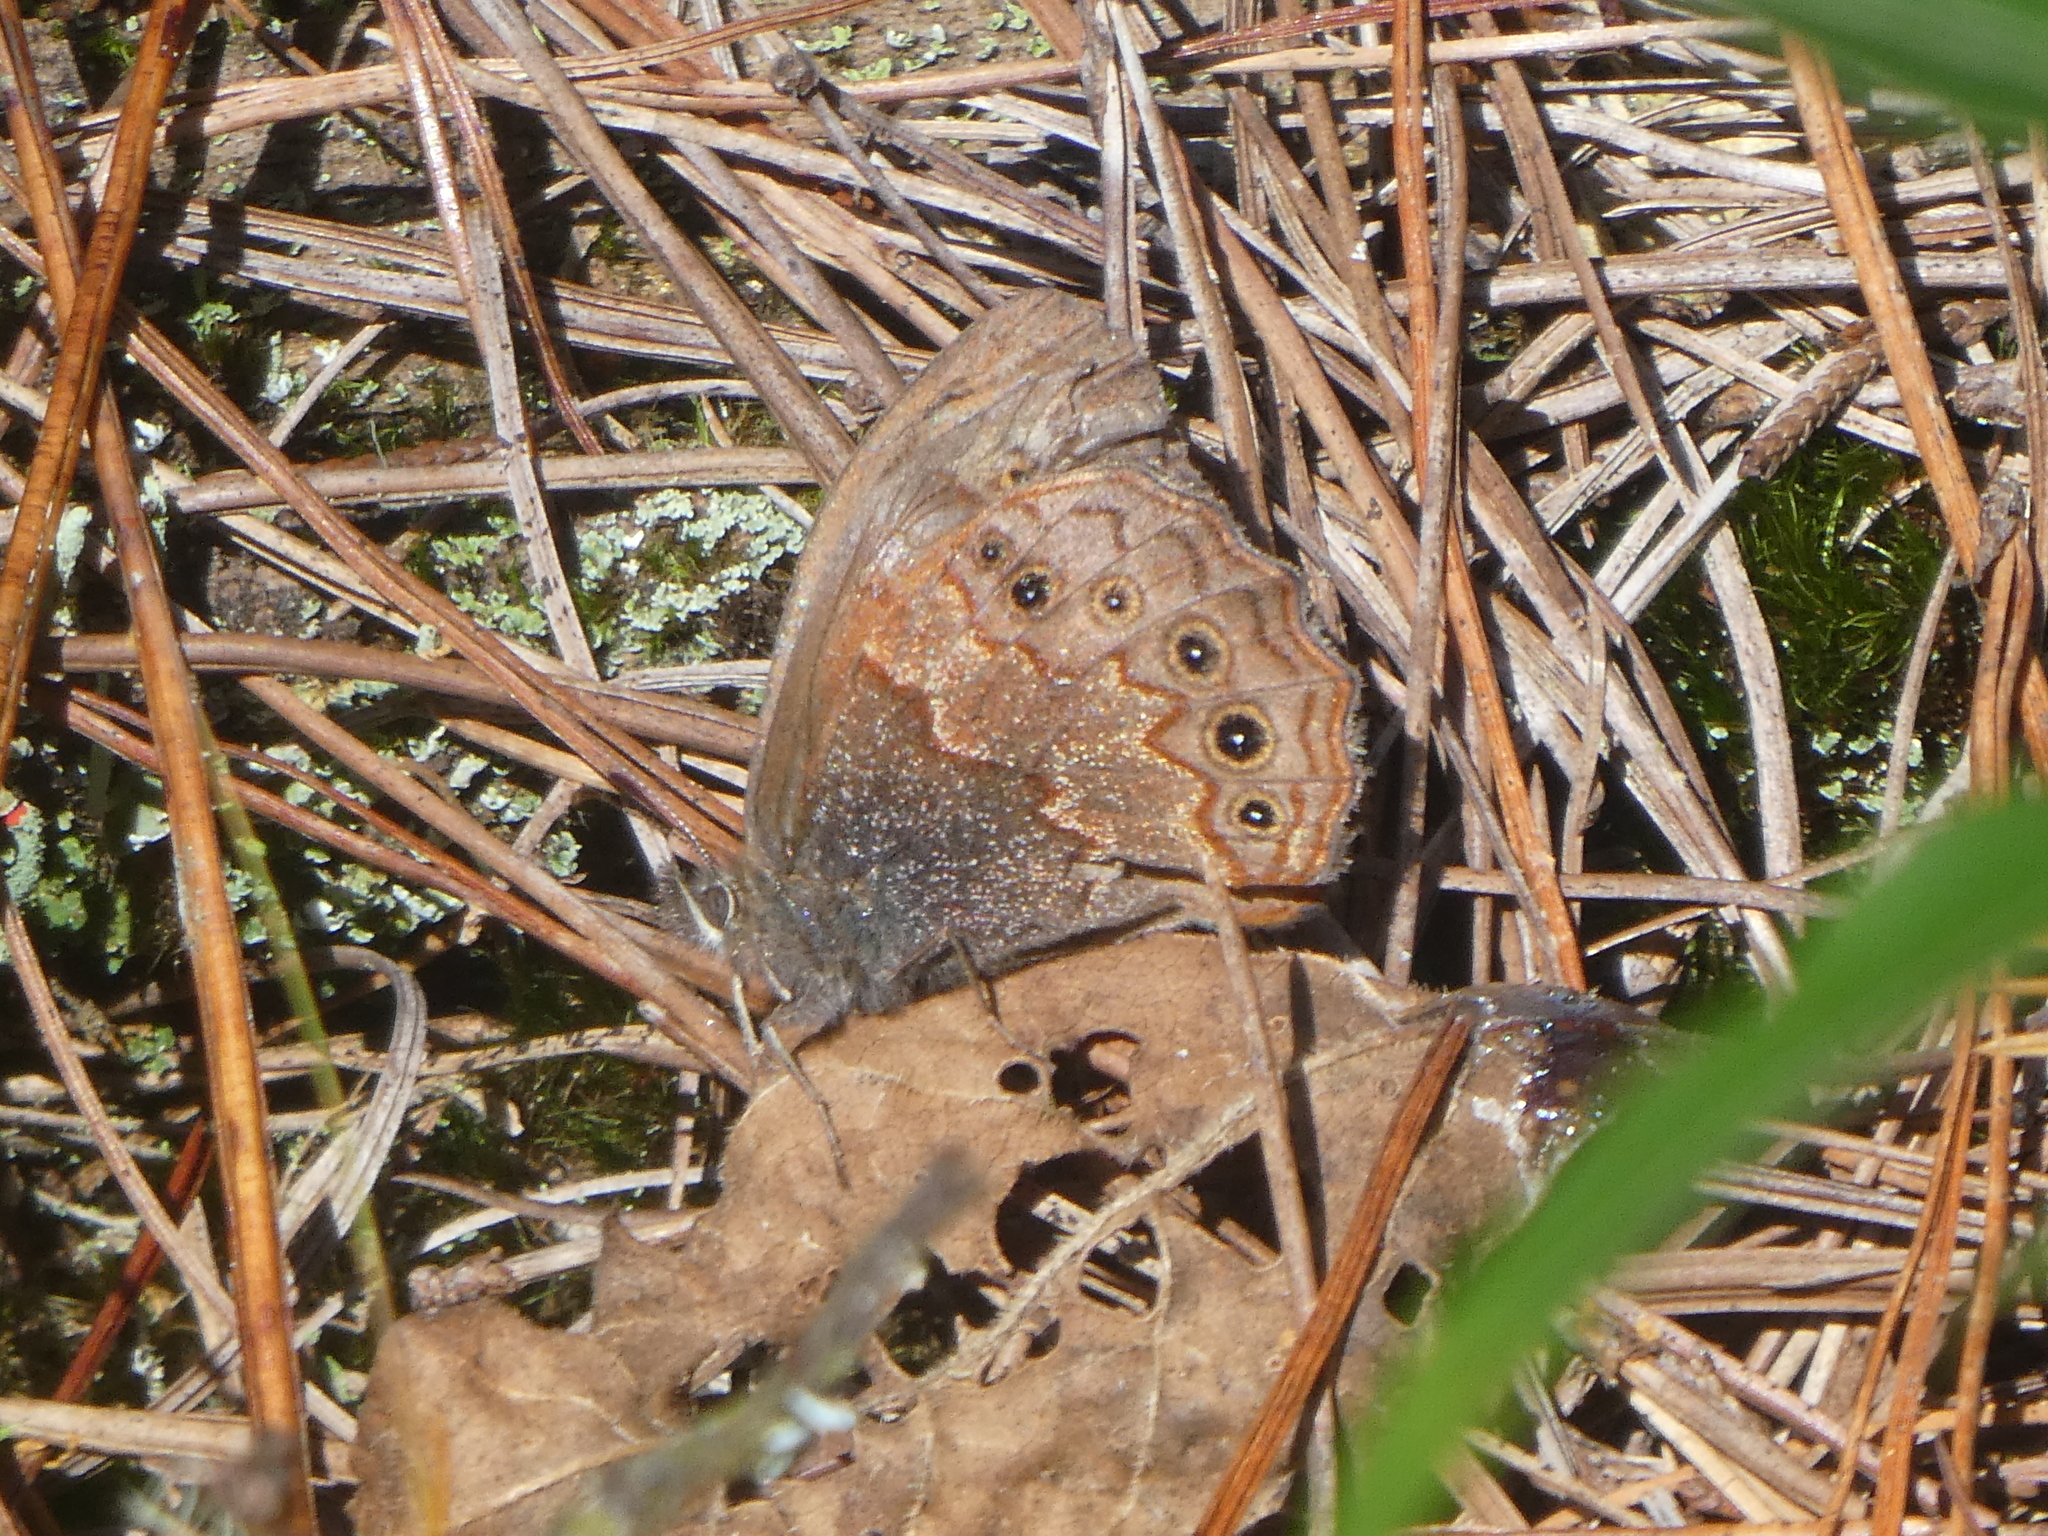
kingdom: Animalia
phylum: Arthropoda
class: Insecta
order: Lepidoptera
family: Nymphalidae
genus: Paramecera
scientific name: Paramecera xicaque
